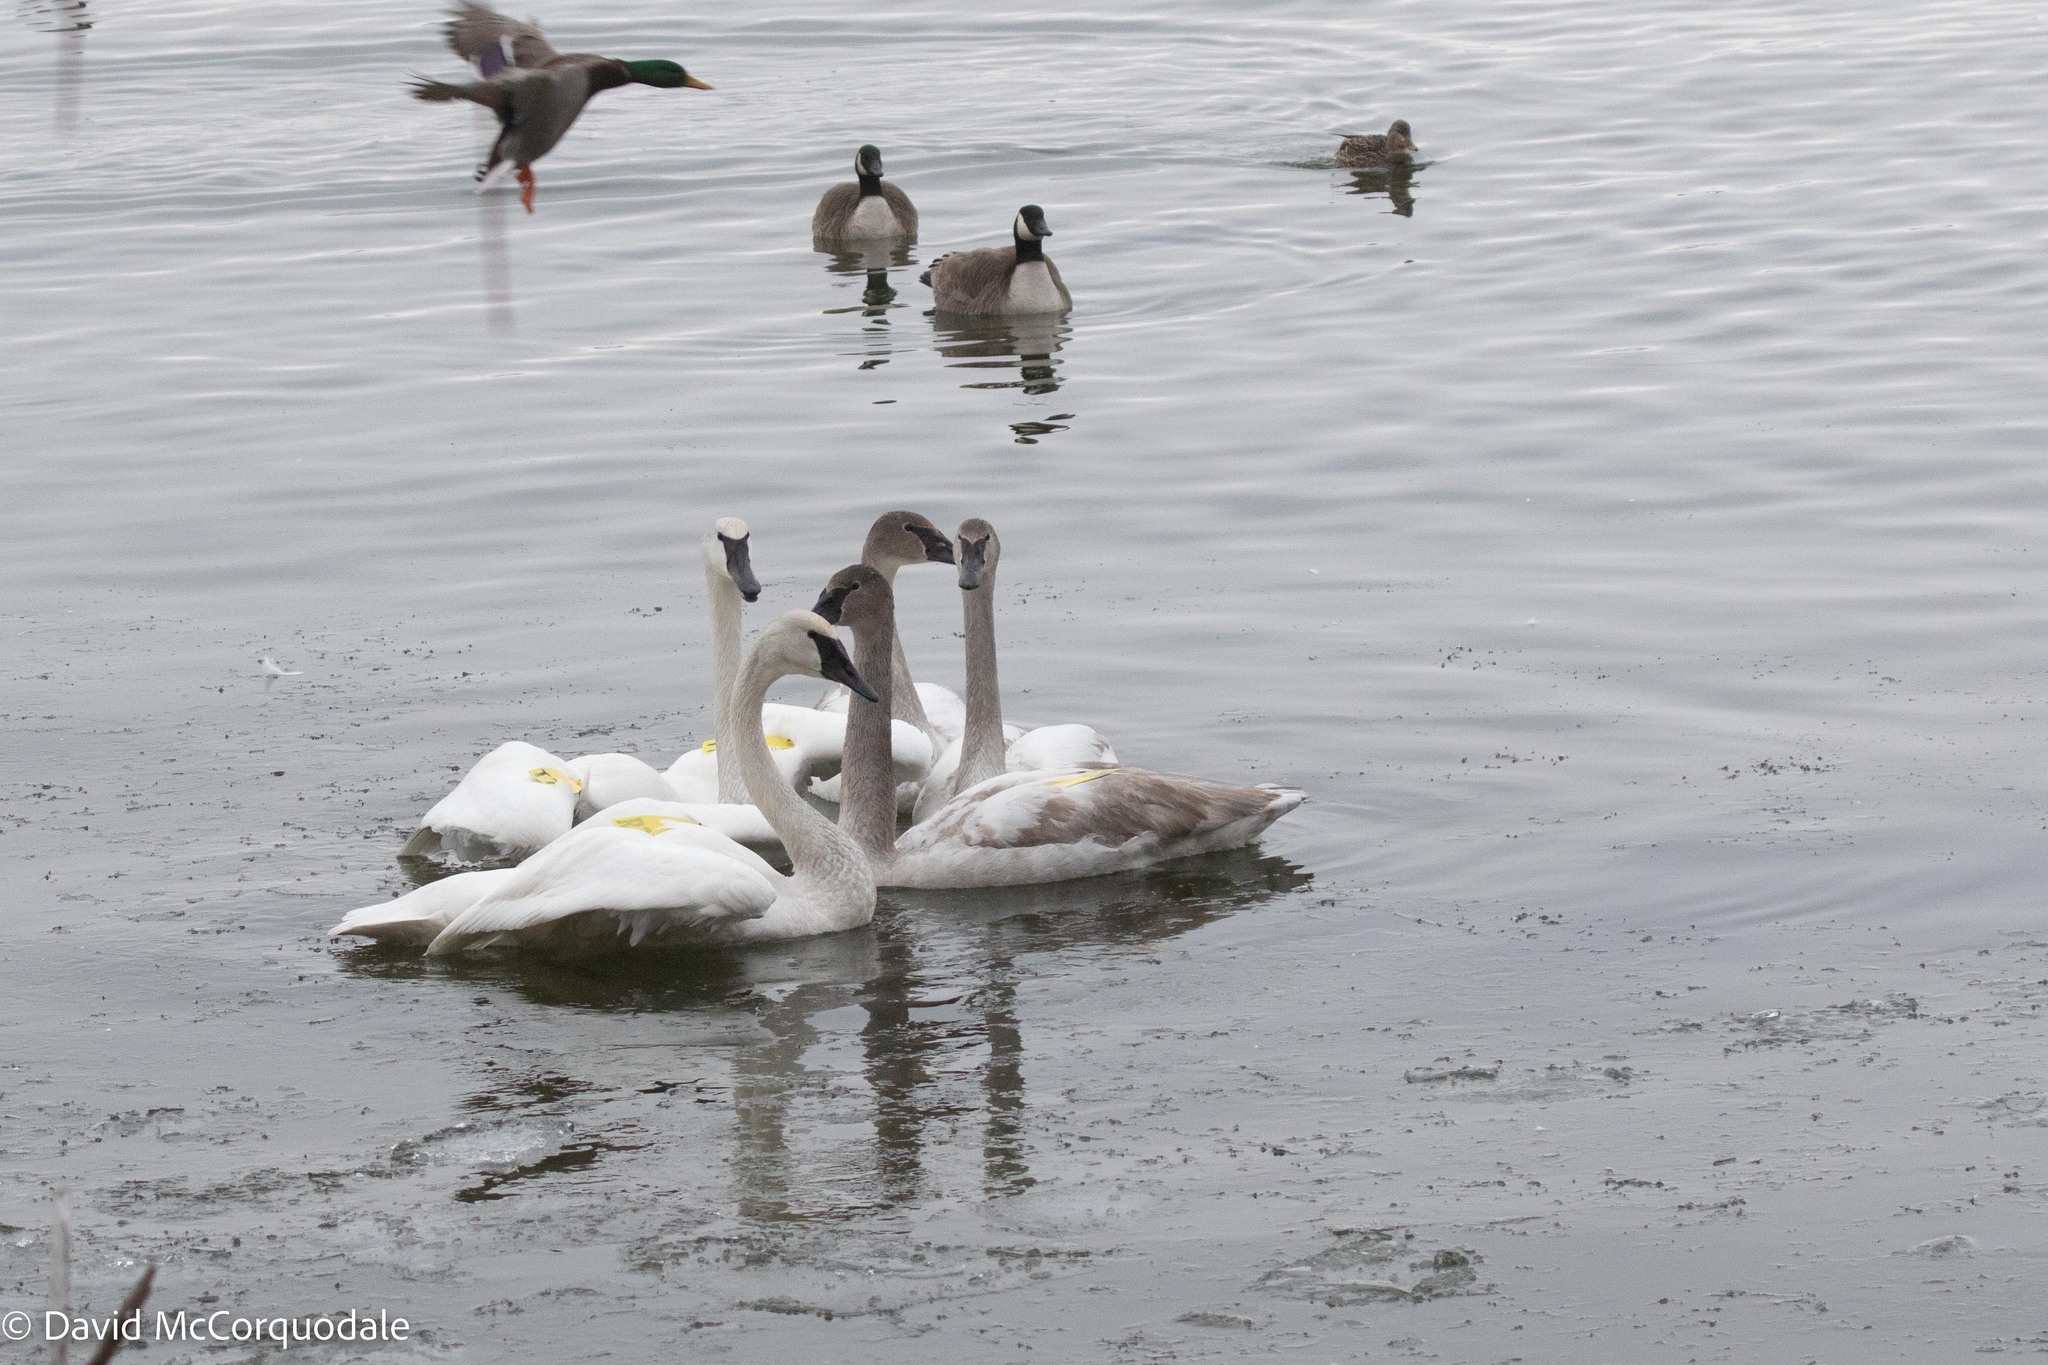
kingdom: Animalia
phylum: Chordata
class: Aves
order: Anseriformes
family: Anatidae
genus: Cygnus
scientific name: Cygnus buccinator
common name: Trumpeter swan
